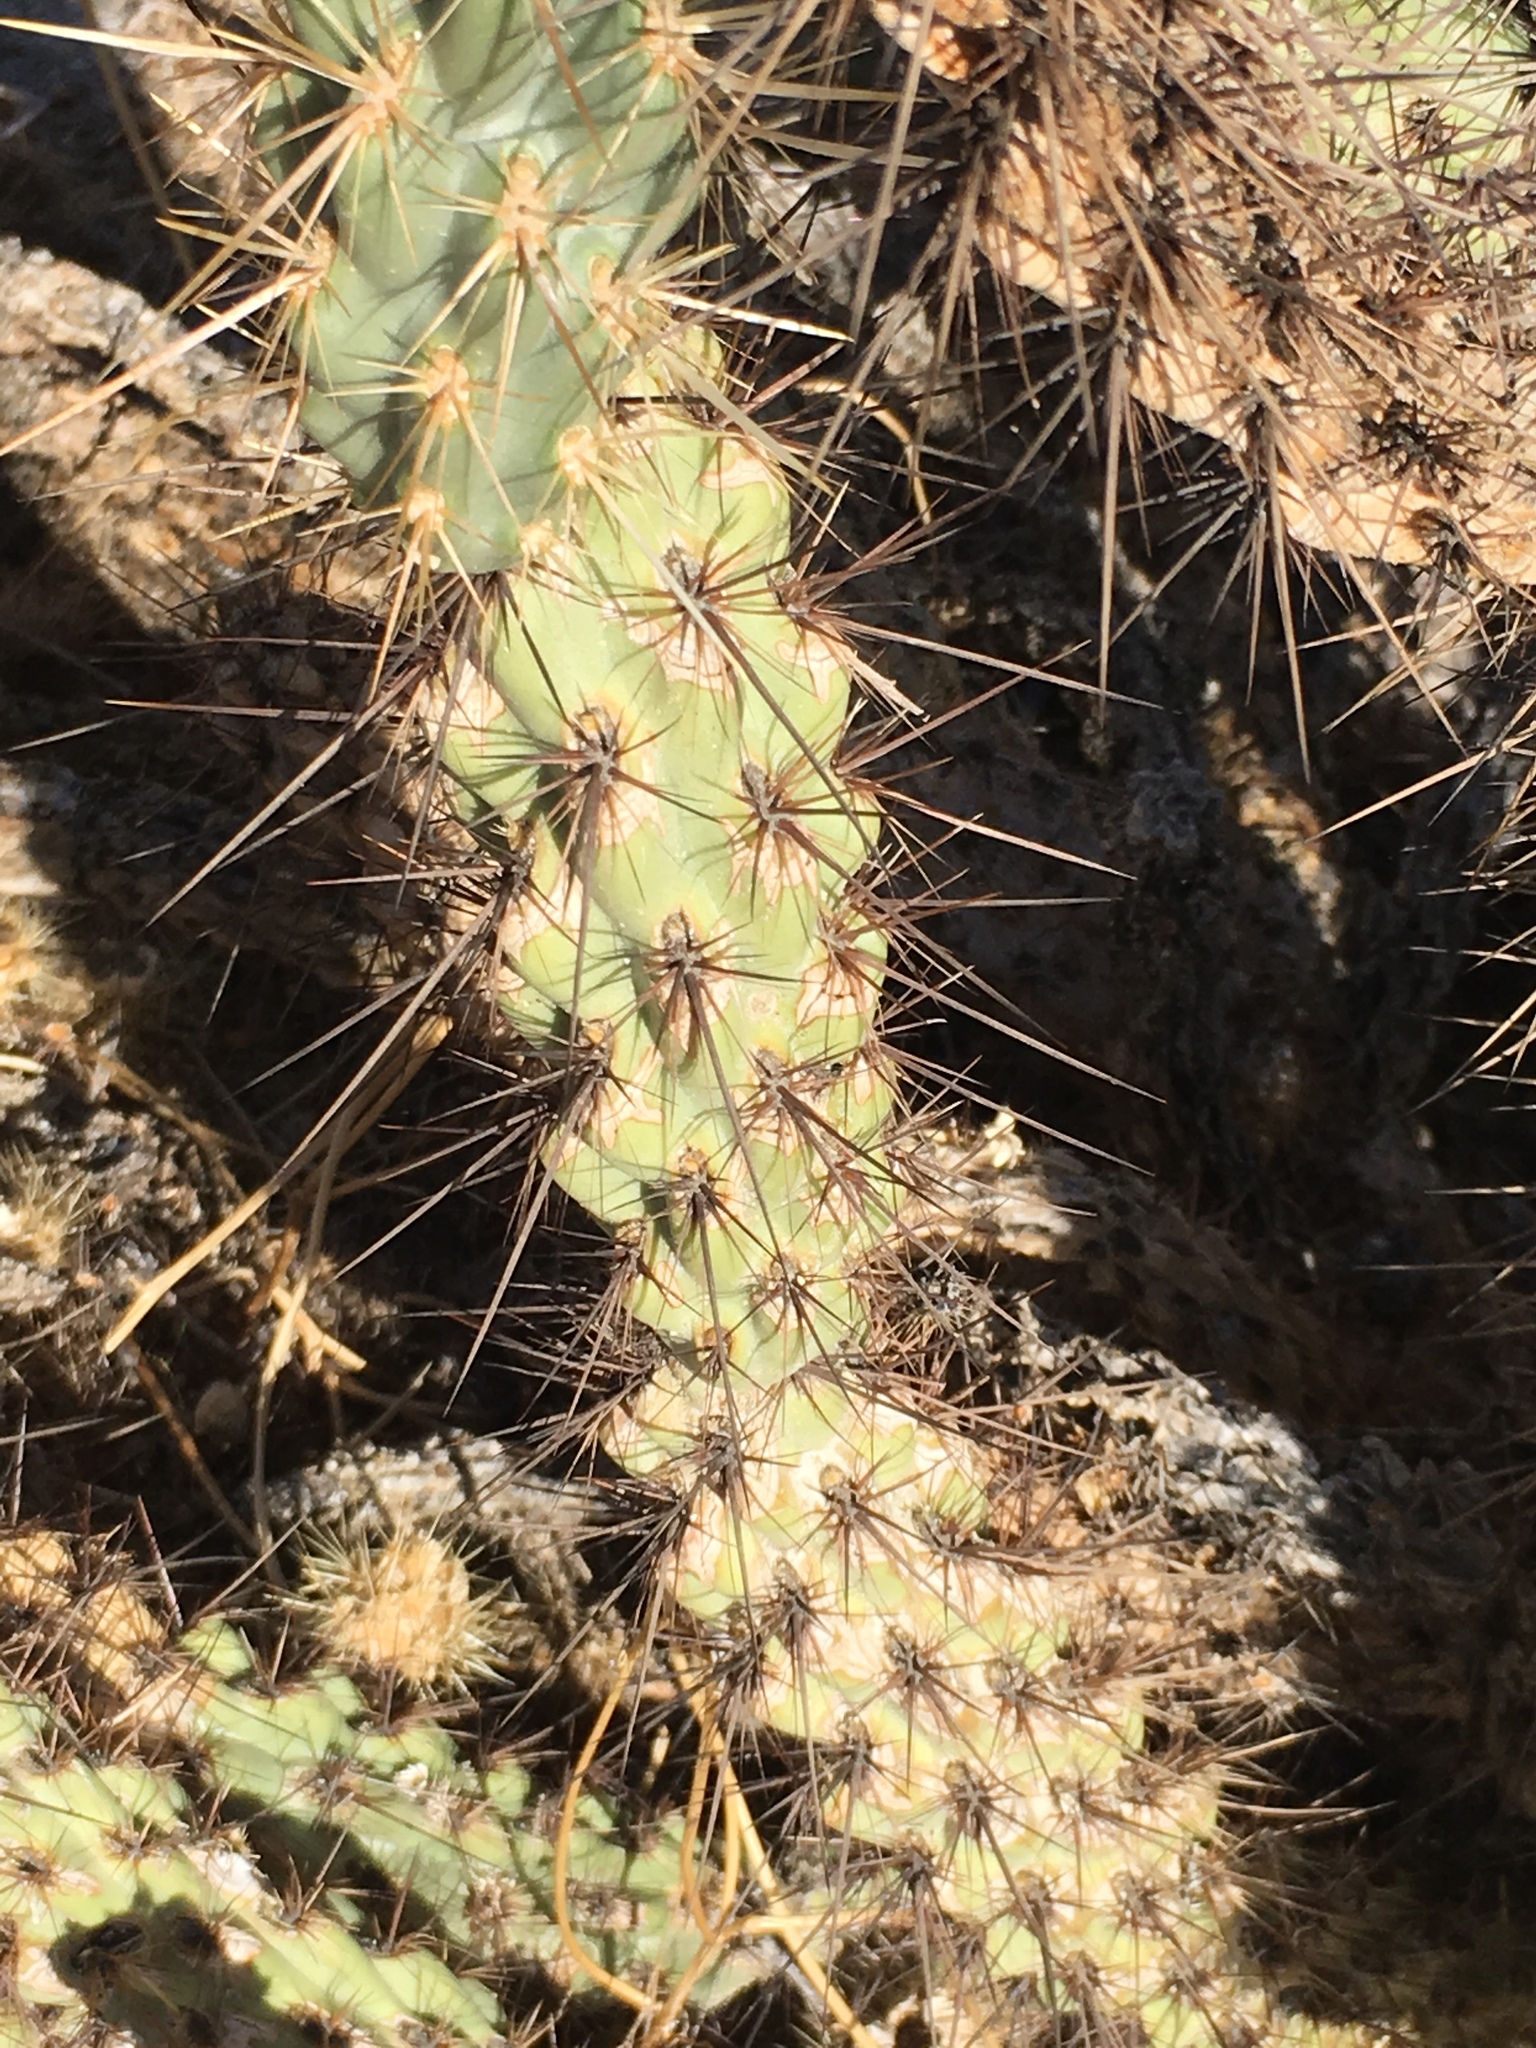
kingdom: Plantae
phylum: Tracheophyta
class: Magnoliopsida
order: Caryophyllales
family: Cactaceae
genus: Cylindropuntia
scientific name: Cylindropuntia ganderi
